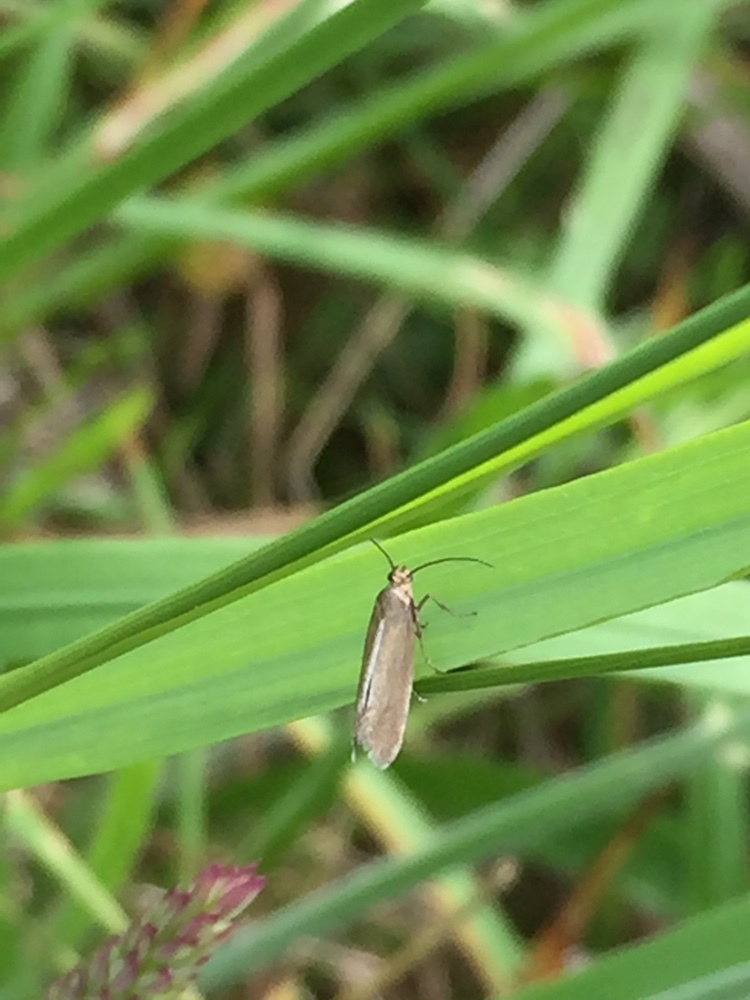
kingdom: Animalia
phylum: Arthropoda
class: Insecta
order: Lepidoptera
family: Micropterigidae
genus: Micropterix
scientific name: Micropterix calthella
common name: Plain gold
